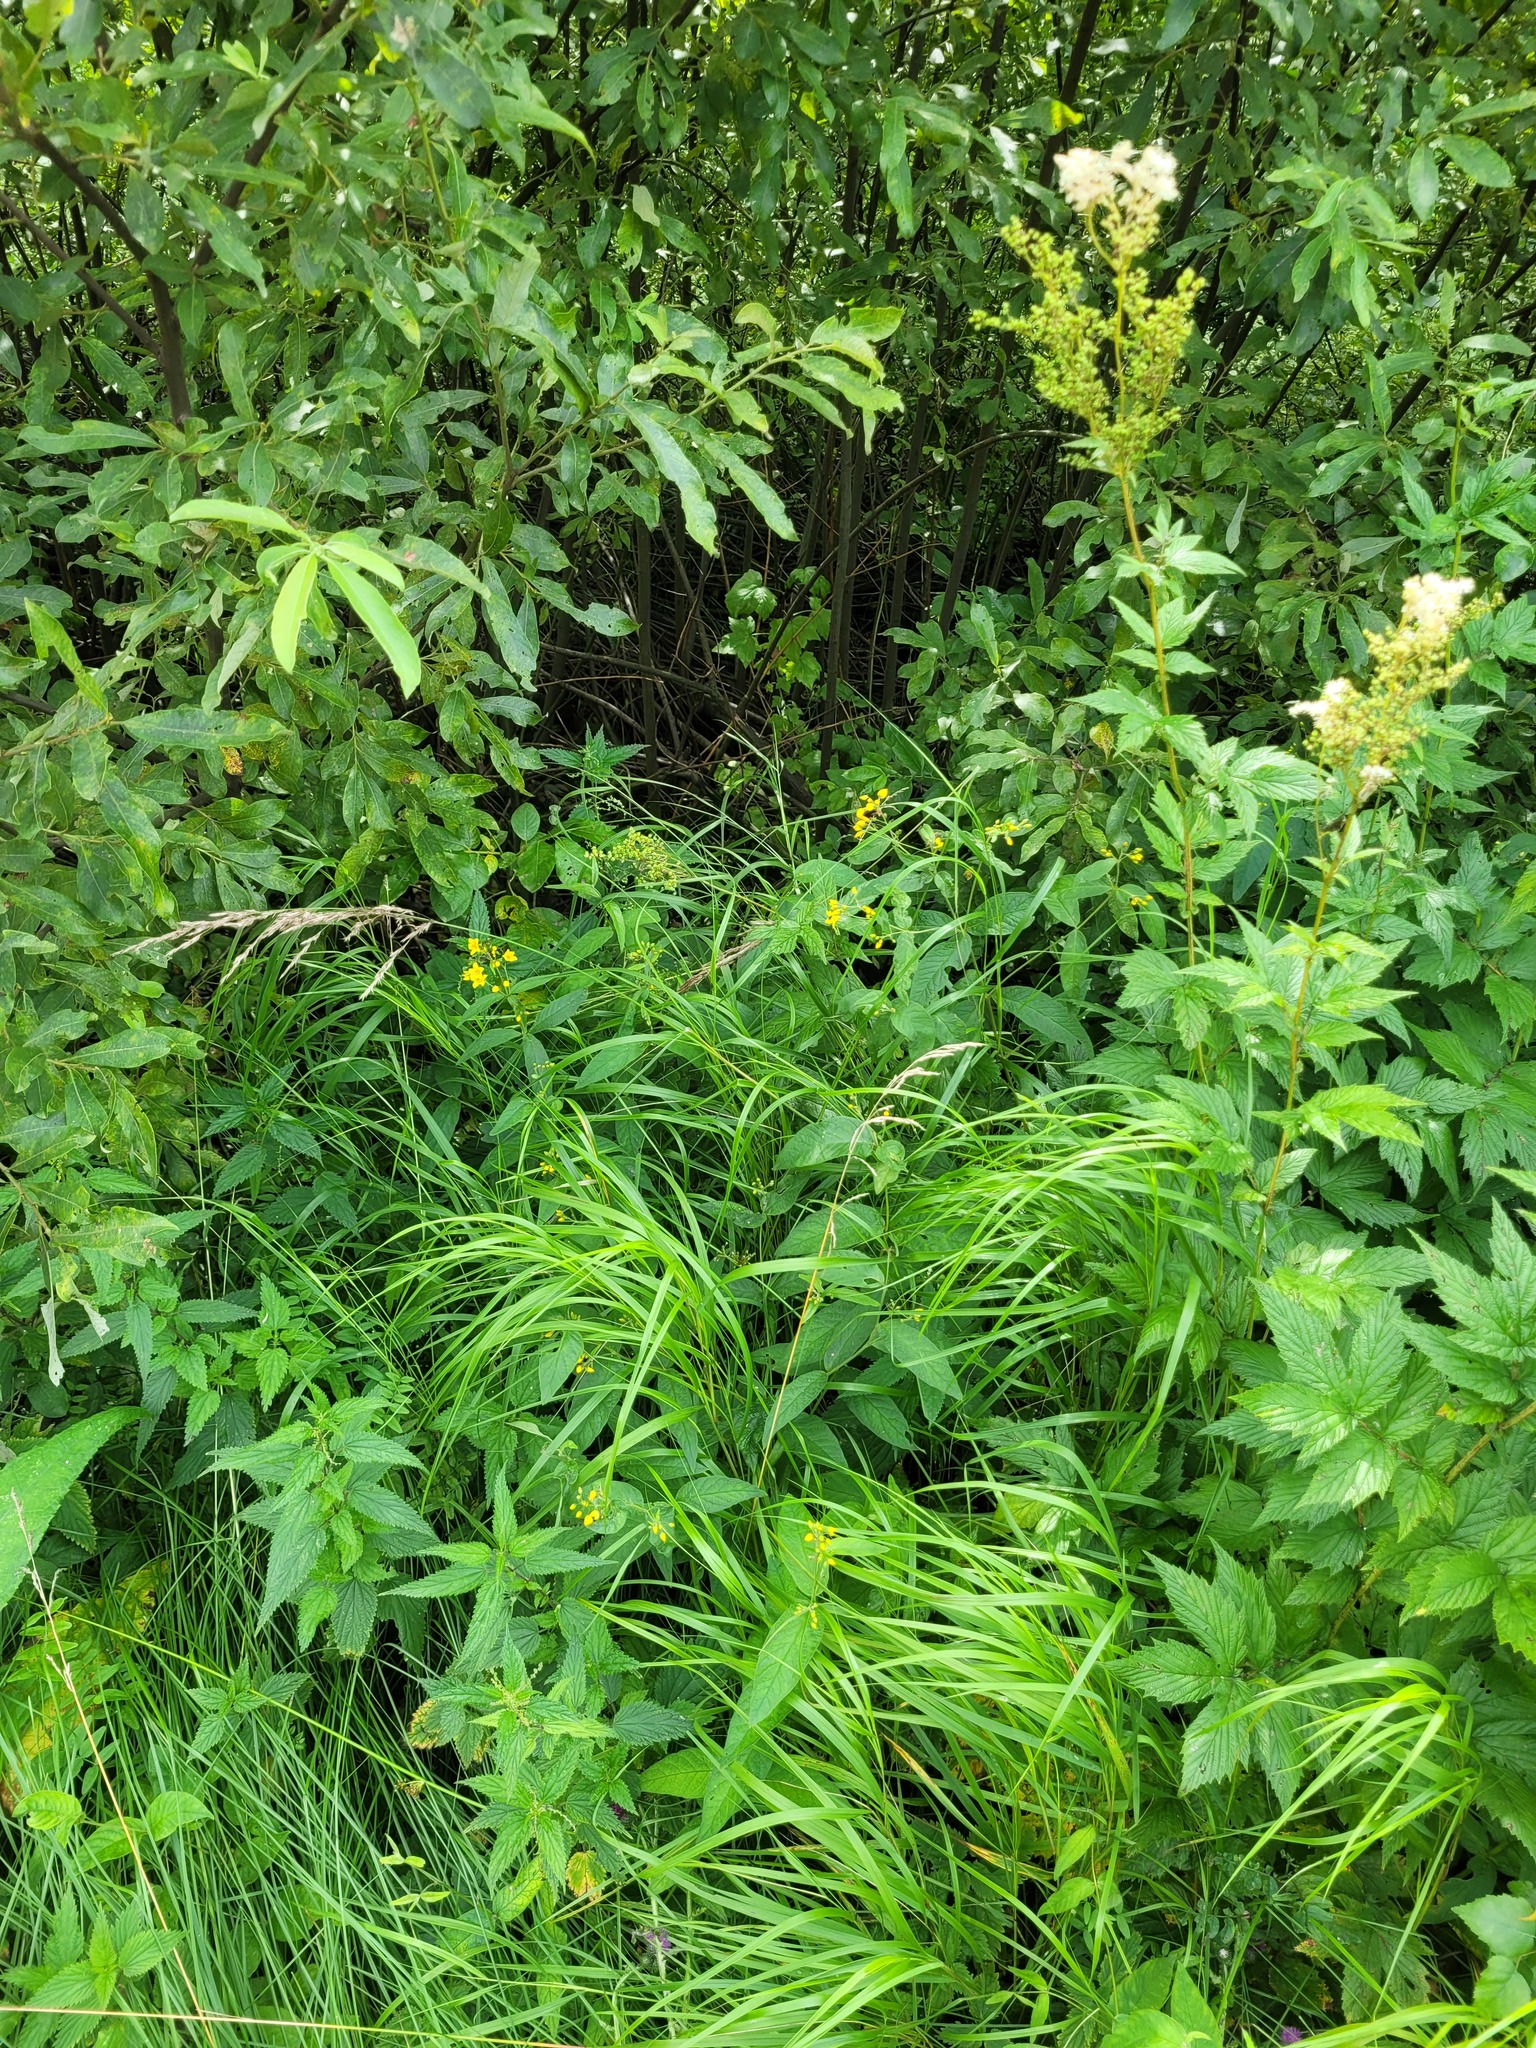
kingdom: Plantae
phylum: Tracheophyta
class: Liliopsida
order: Poales
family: Poaceae
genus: Calamagrostis
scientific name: Calamagrostis canescens
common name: Purple small-reed
